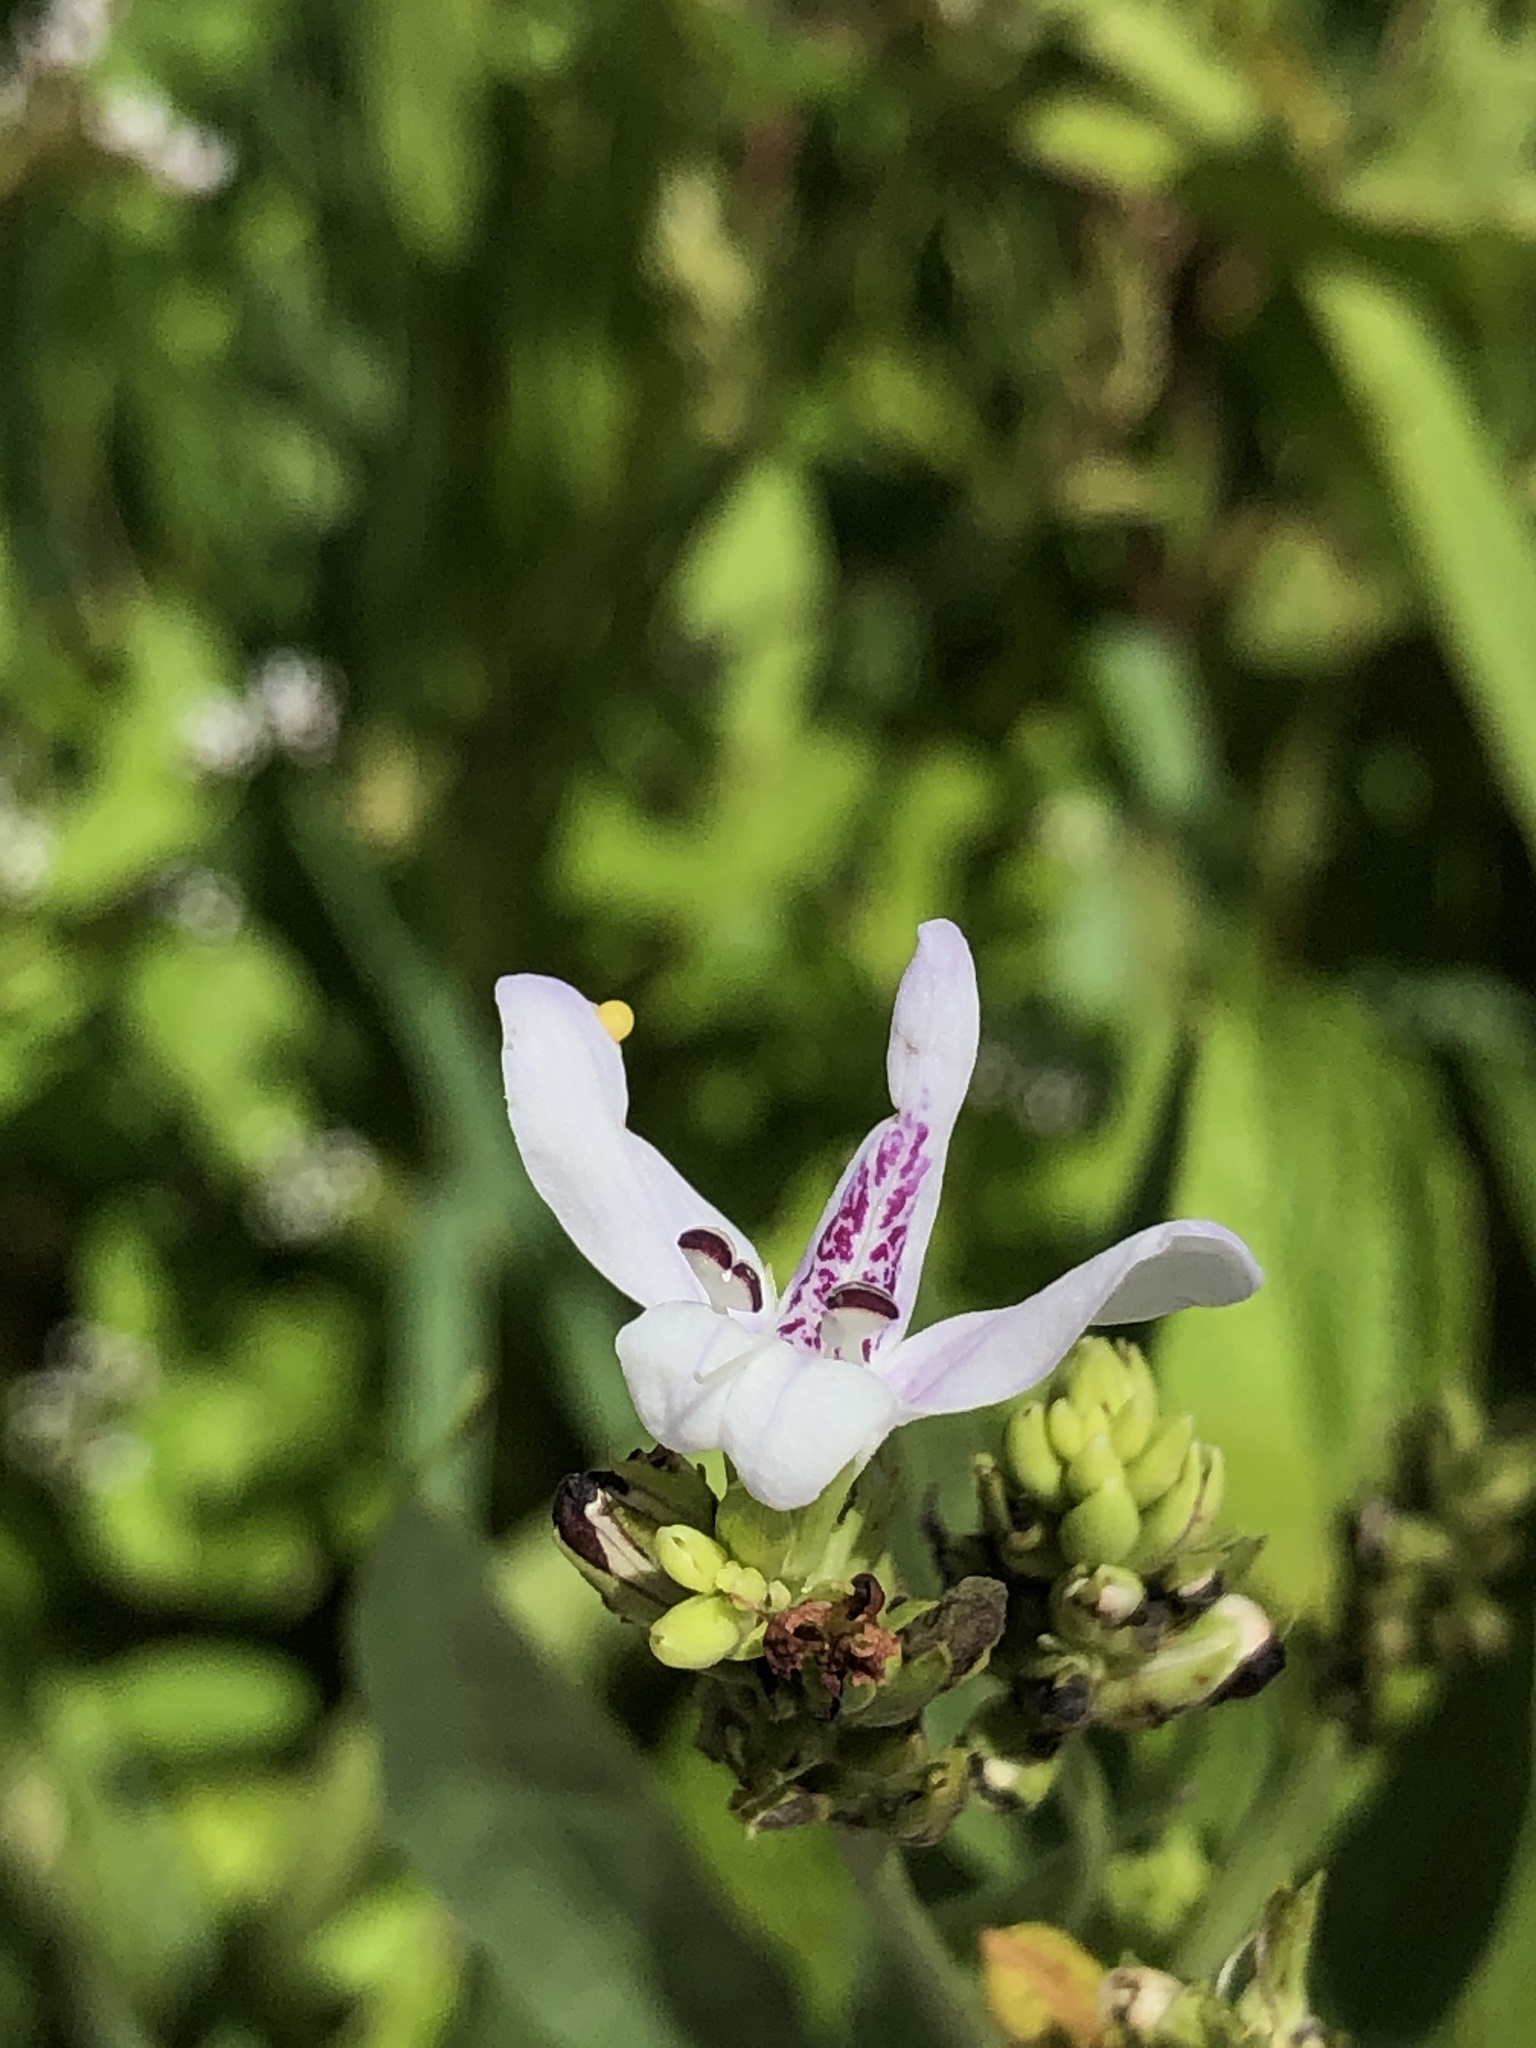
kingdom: Plantae
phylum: Tracheophyta
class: Magnoliopsida
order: Lamiales
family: Acanthaceae
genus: Dianthera
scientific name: Dianthera americana
